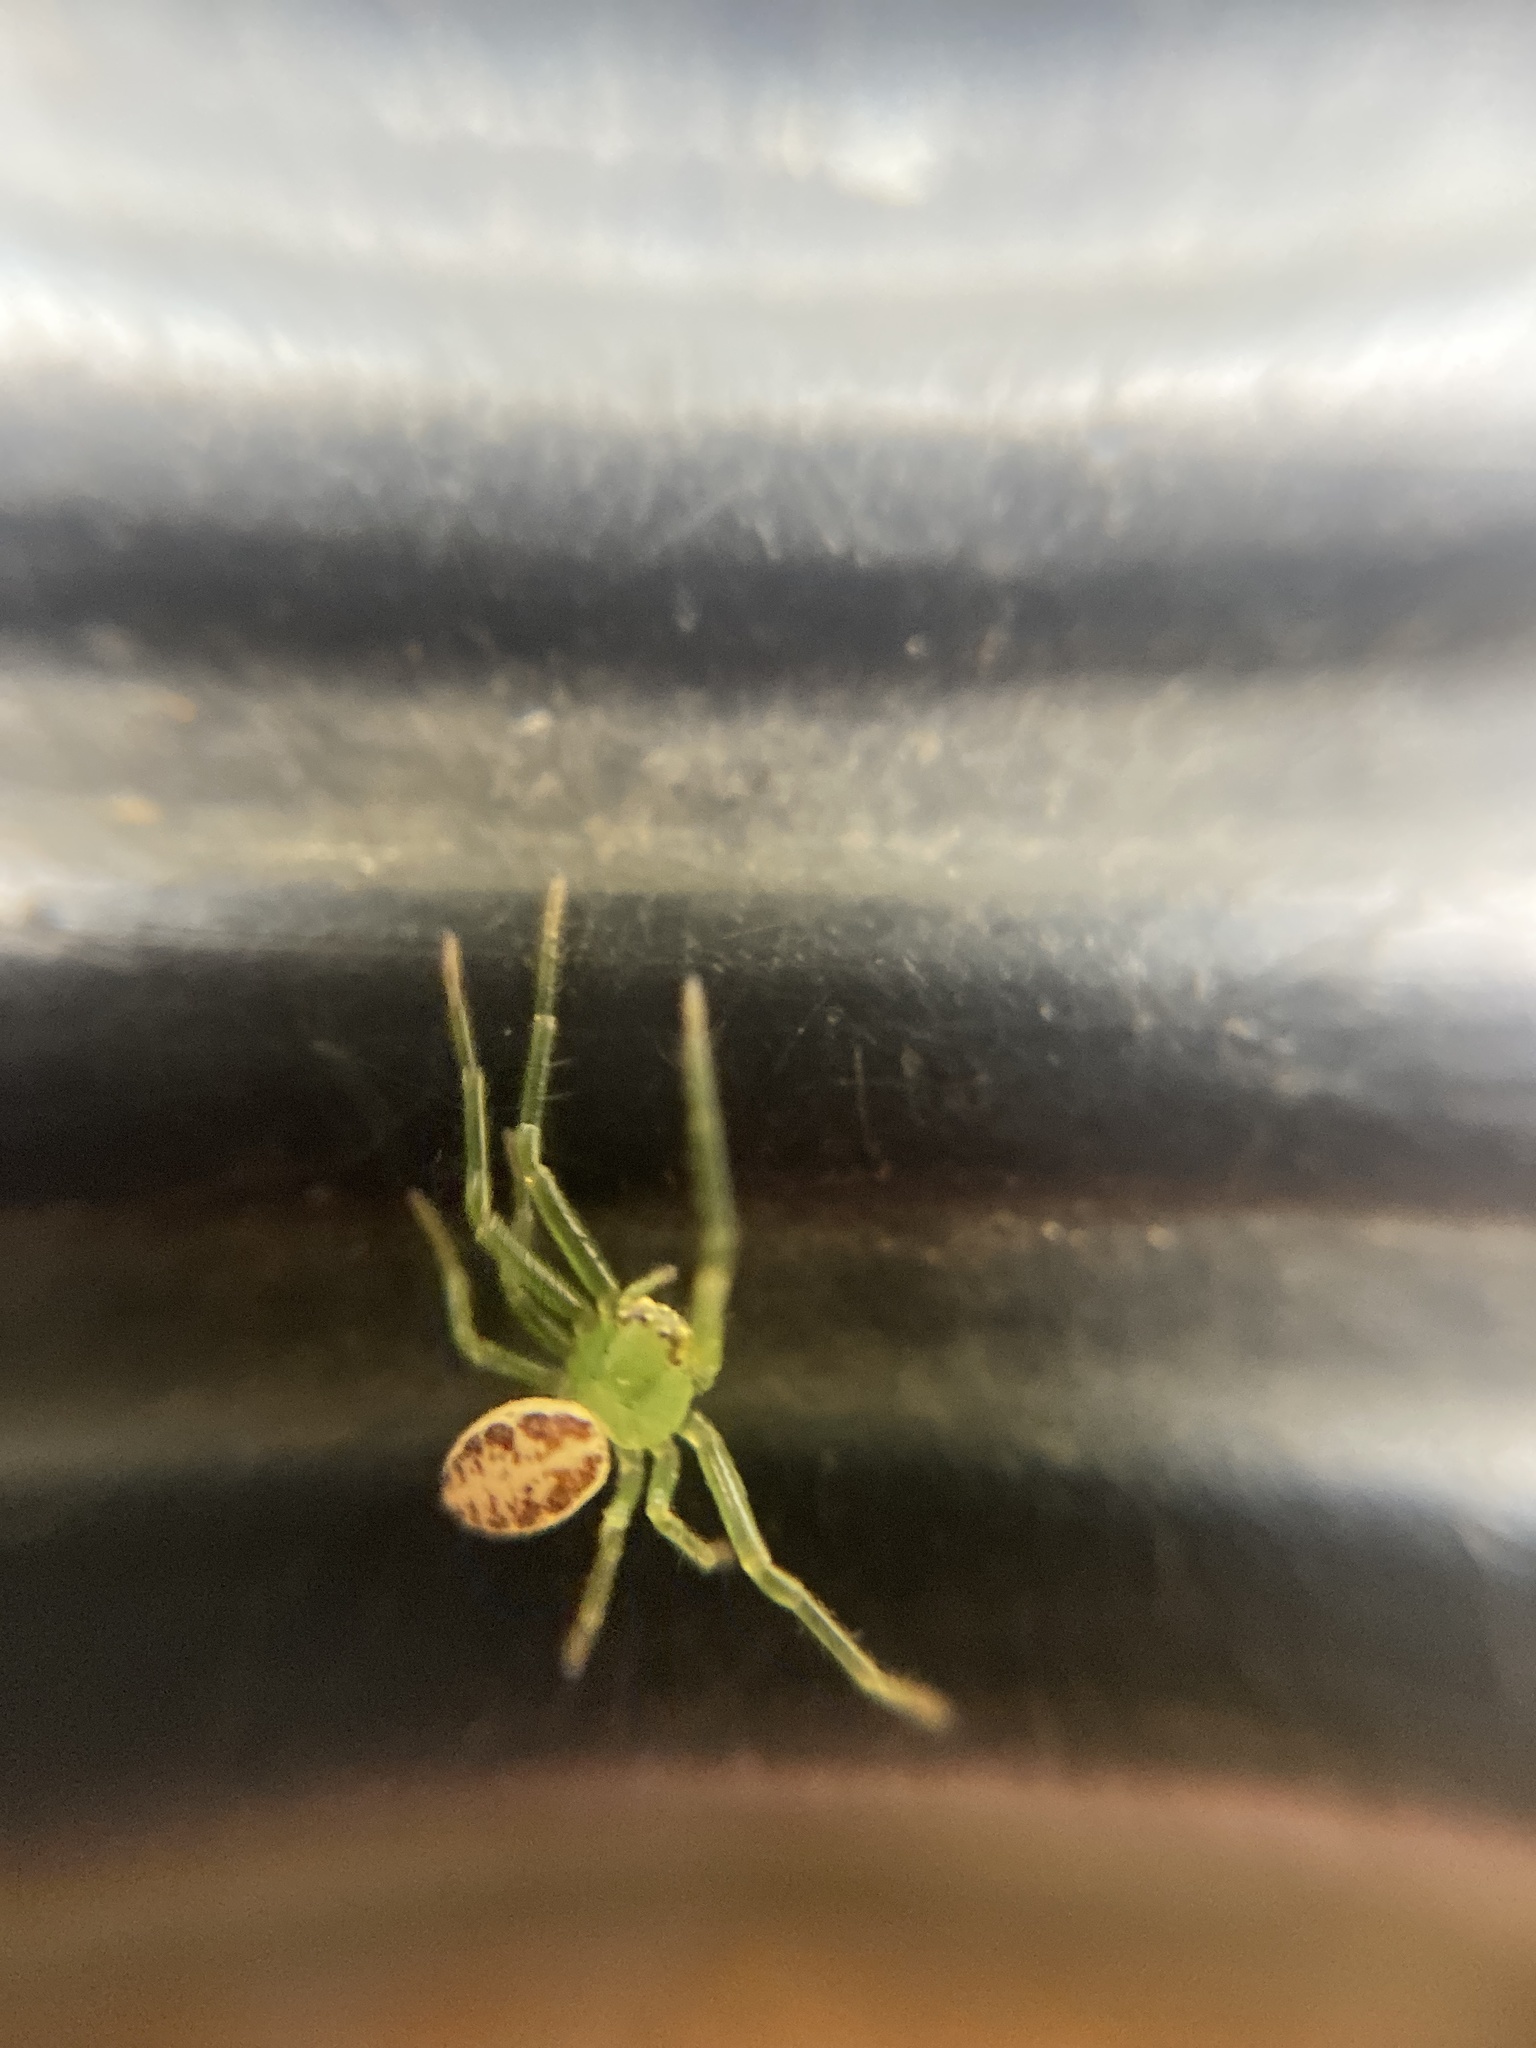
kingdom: Animalia
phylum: Arthropoda
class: Arachnida
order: Araneae
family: Thomisidae
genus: Diaea
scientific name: Diaea dorsata
